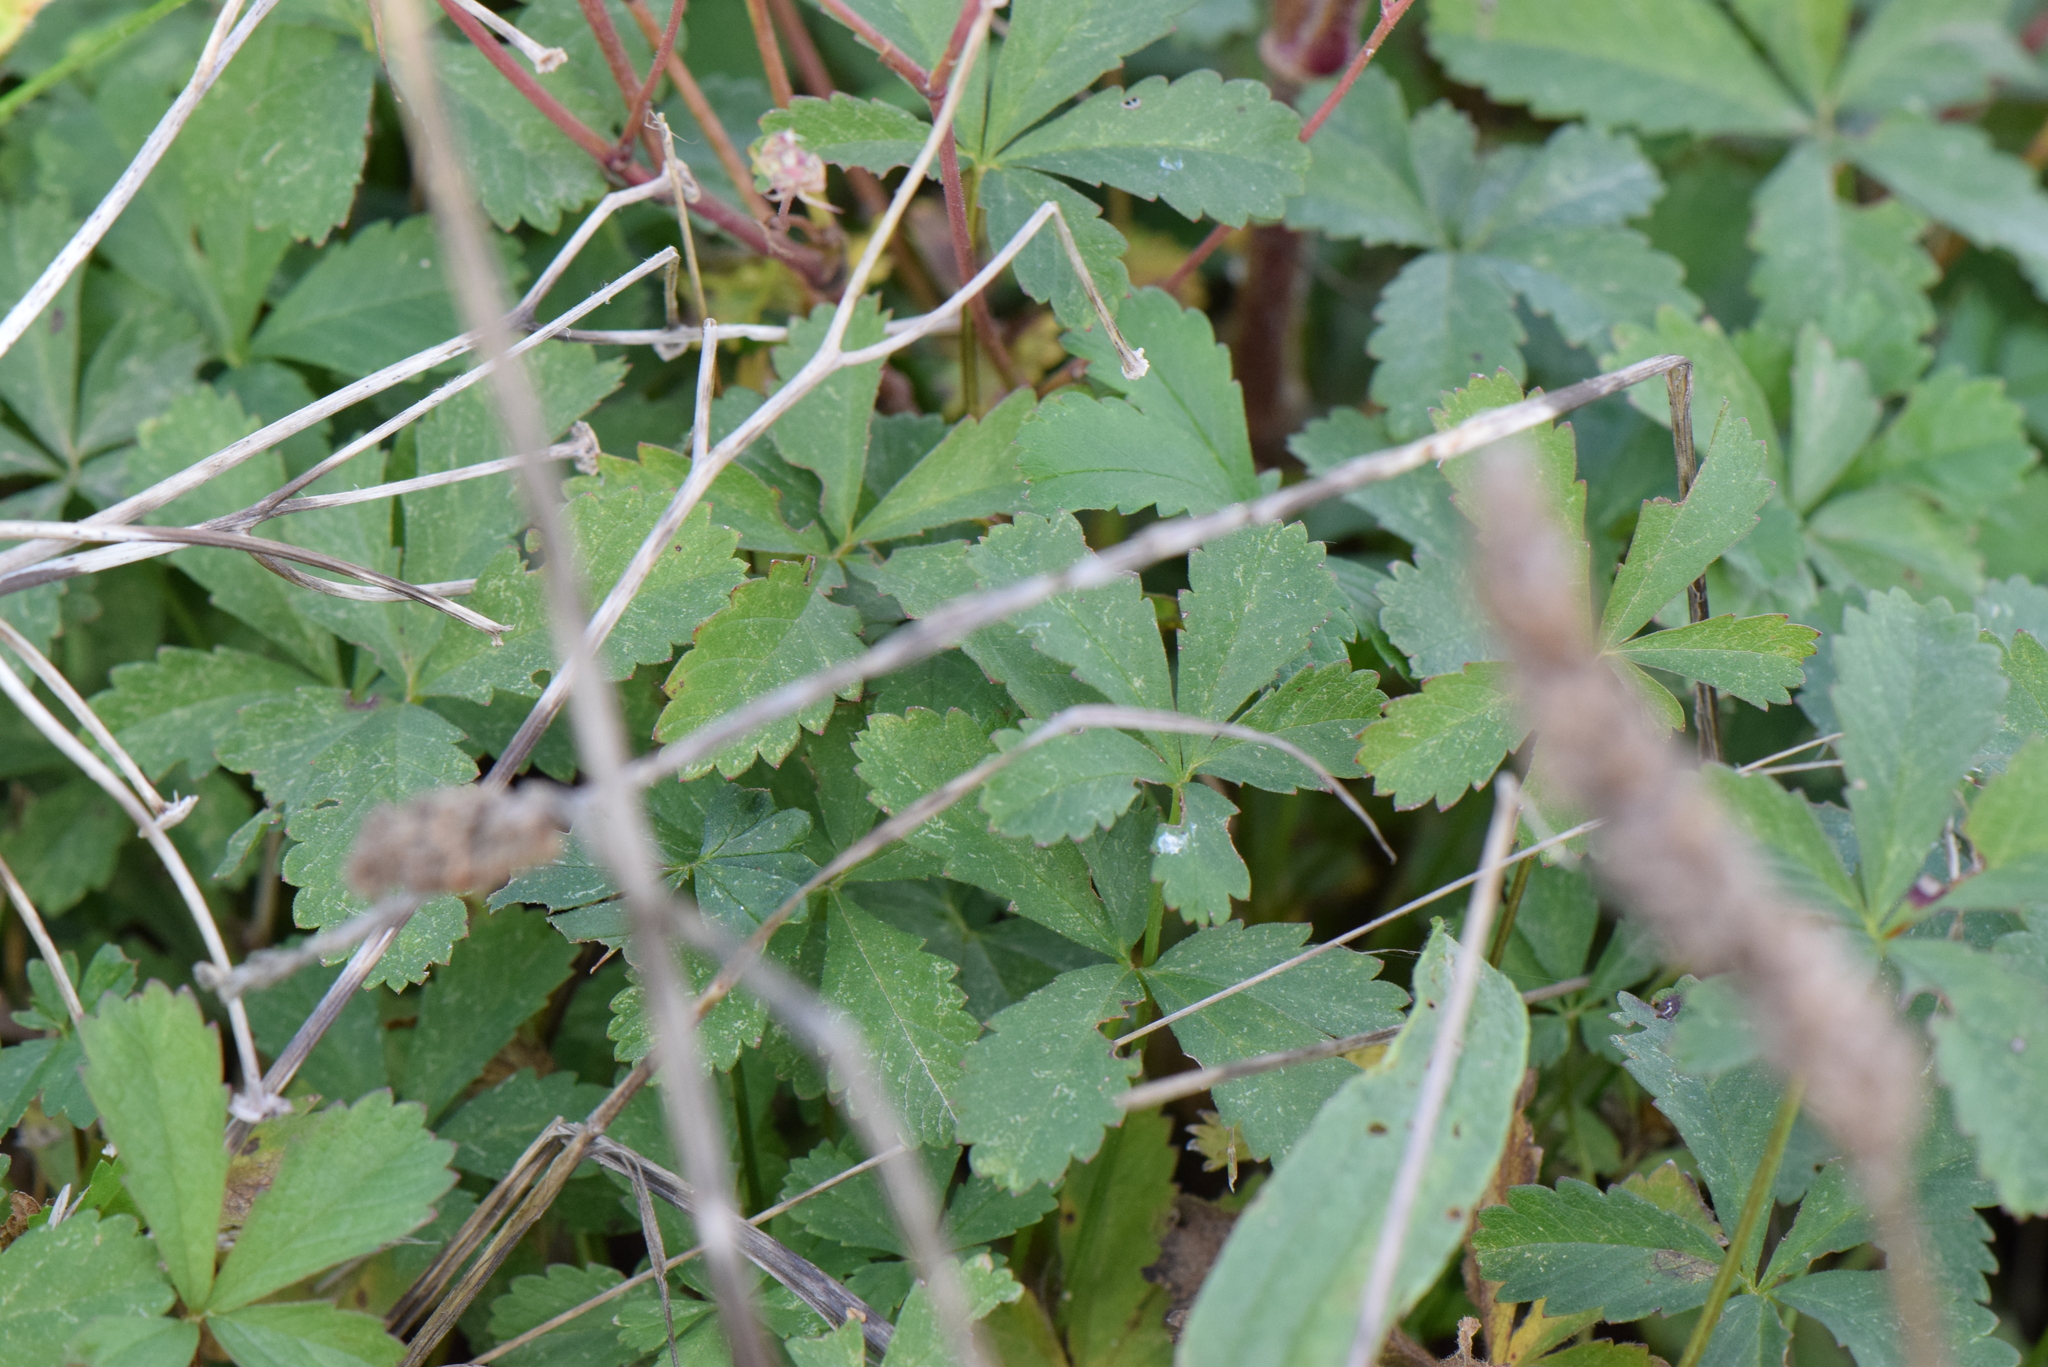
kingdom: Plantae
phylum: Tracheophyta
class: Magnoliopsida
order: Rosales
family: Rosaceae
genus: Potentilla
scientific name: Potentilla reptans
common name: Creeping cinquefoil
